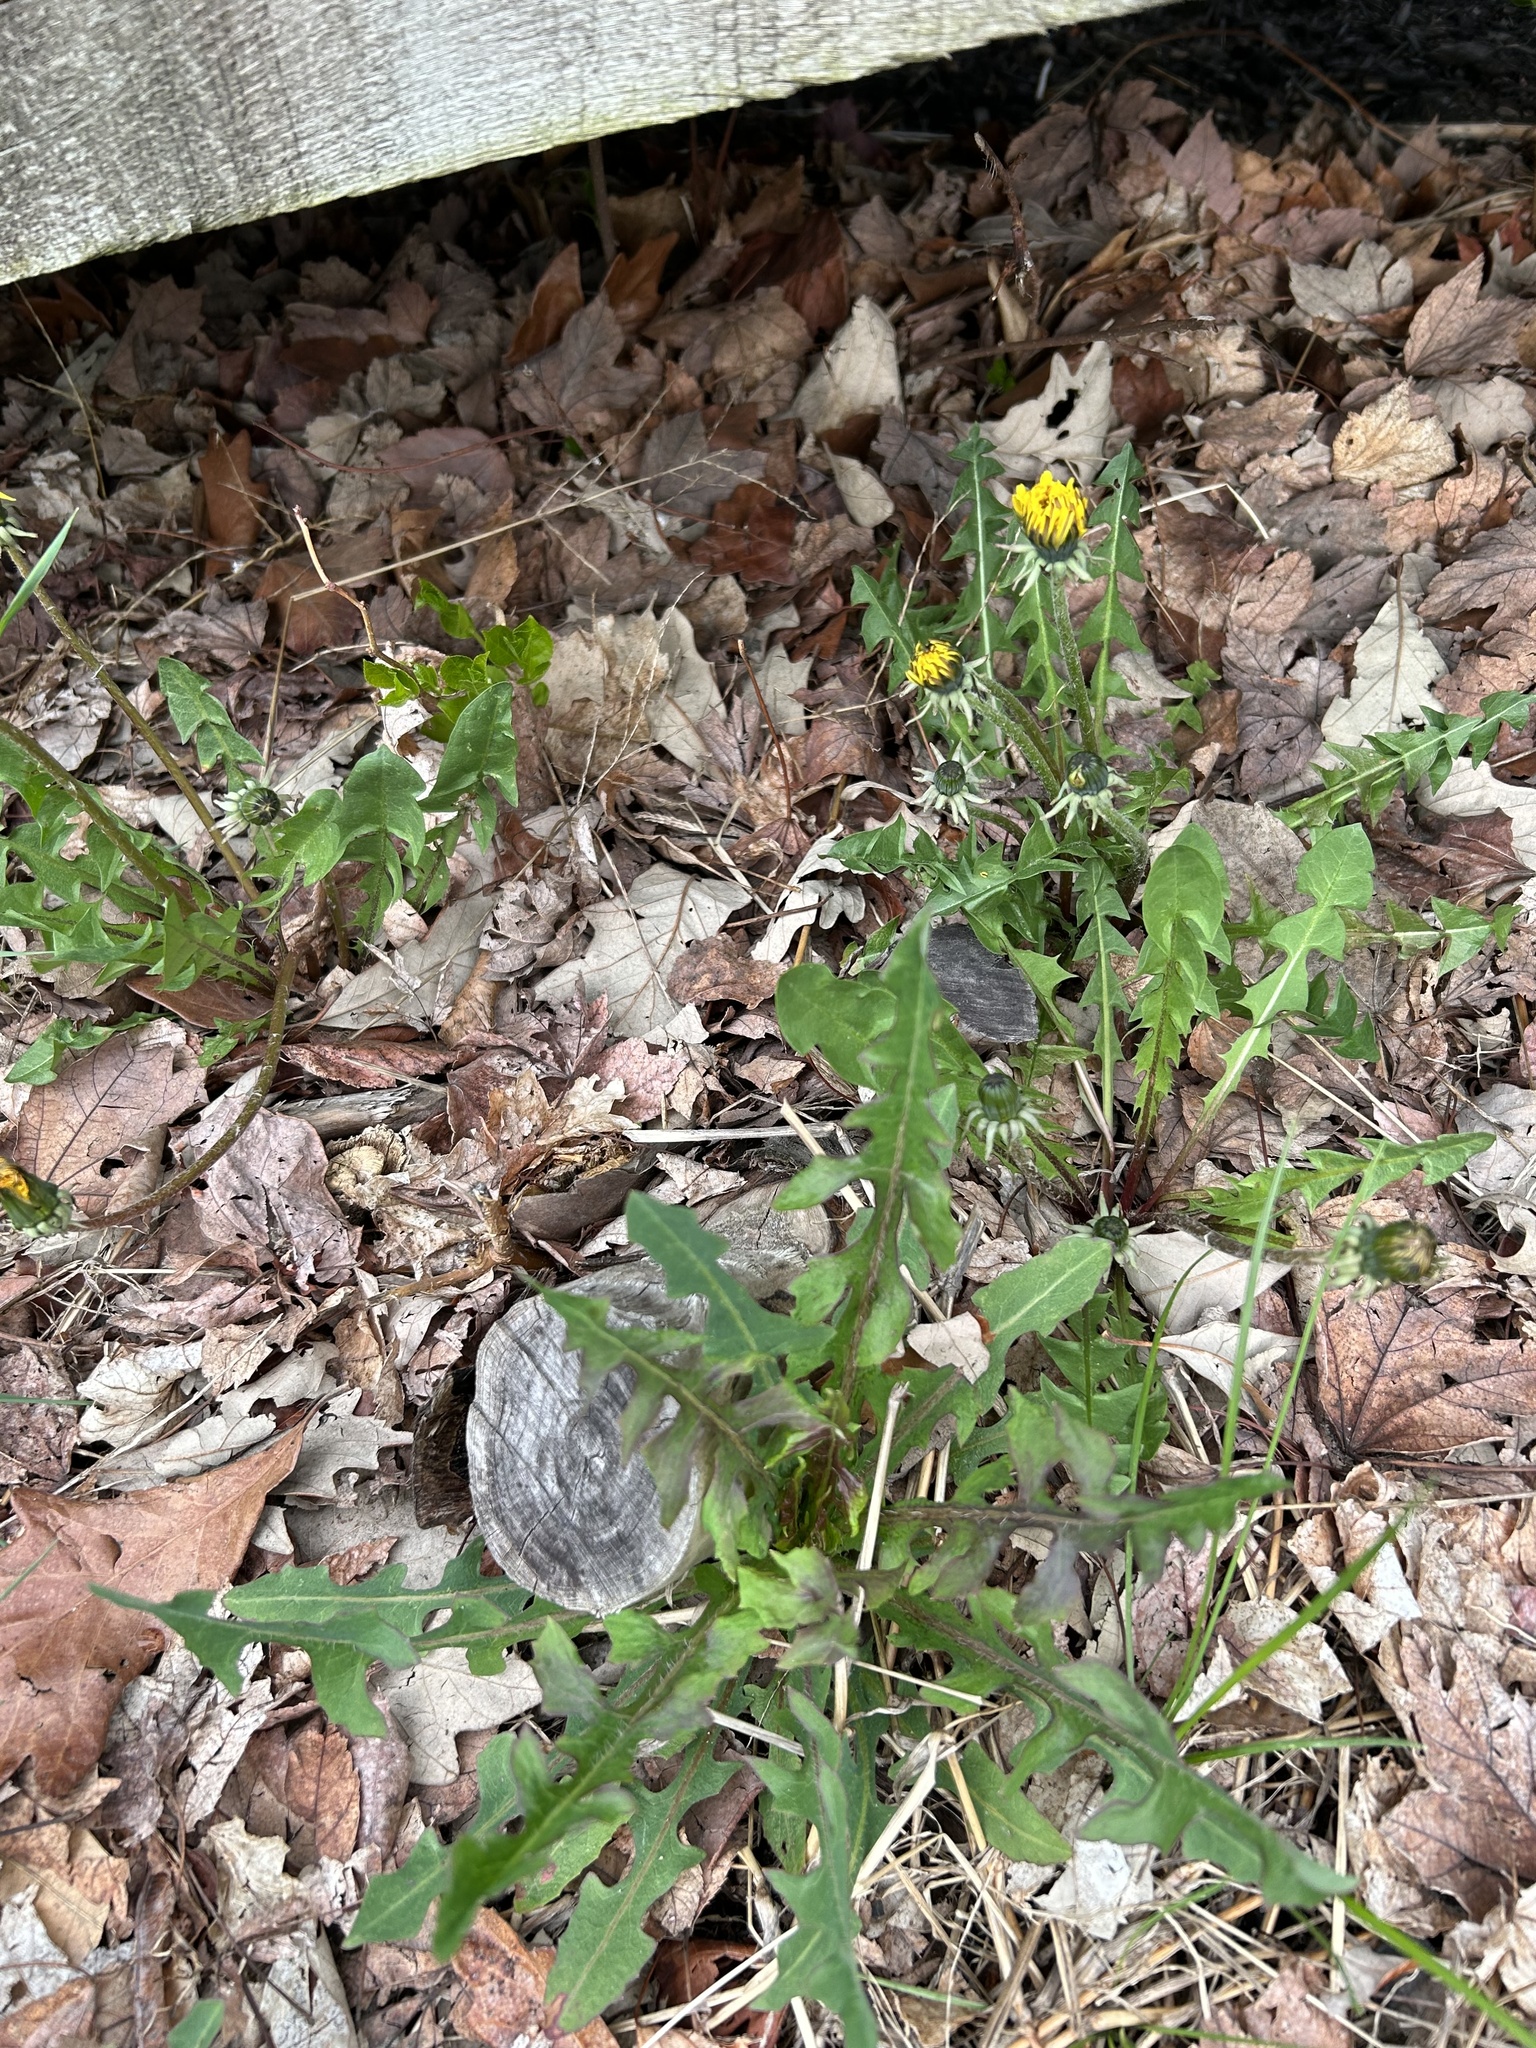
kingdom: Plantae
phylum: Tracheophyta
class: Magnoliopsida
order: Asterales
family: Asteraceae
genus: Taraxacum
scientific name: Taraxacum officinale
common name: Common dandelion
